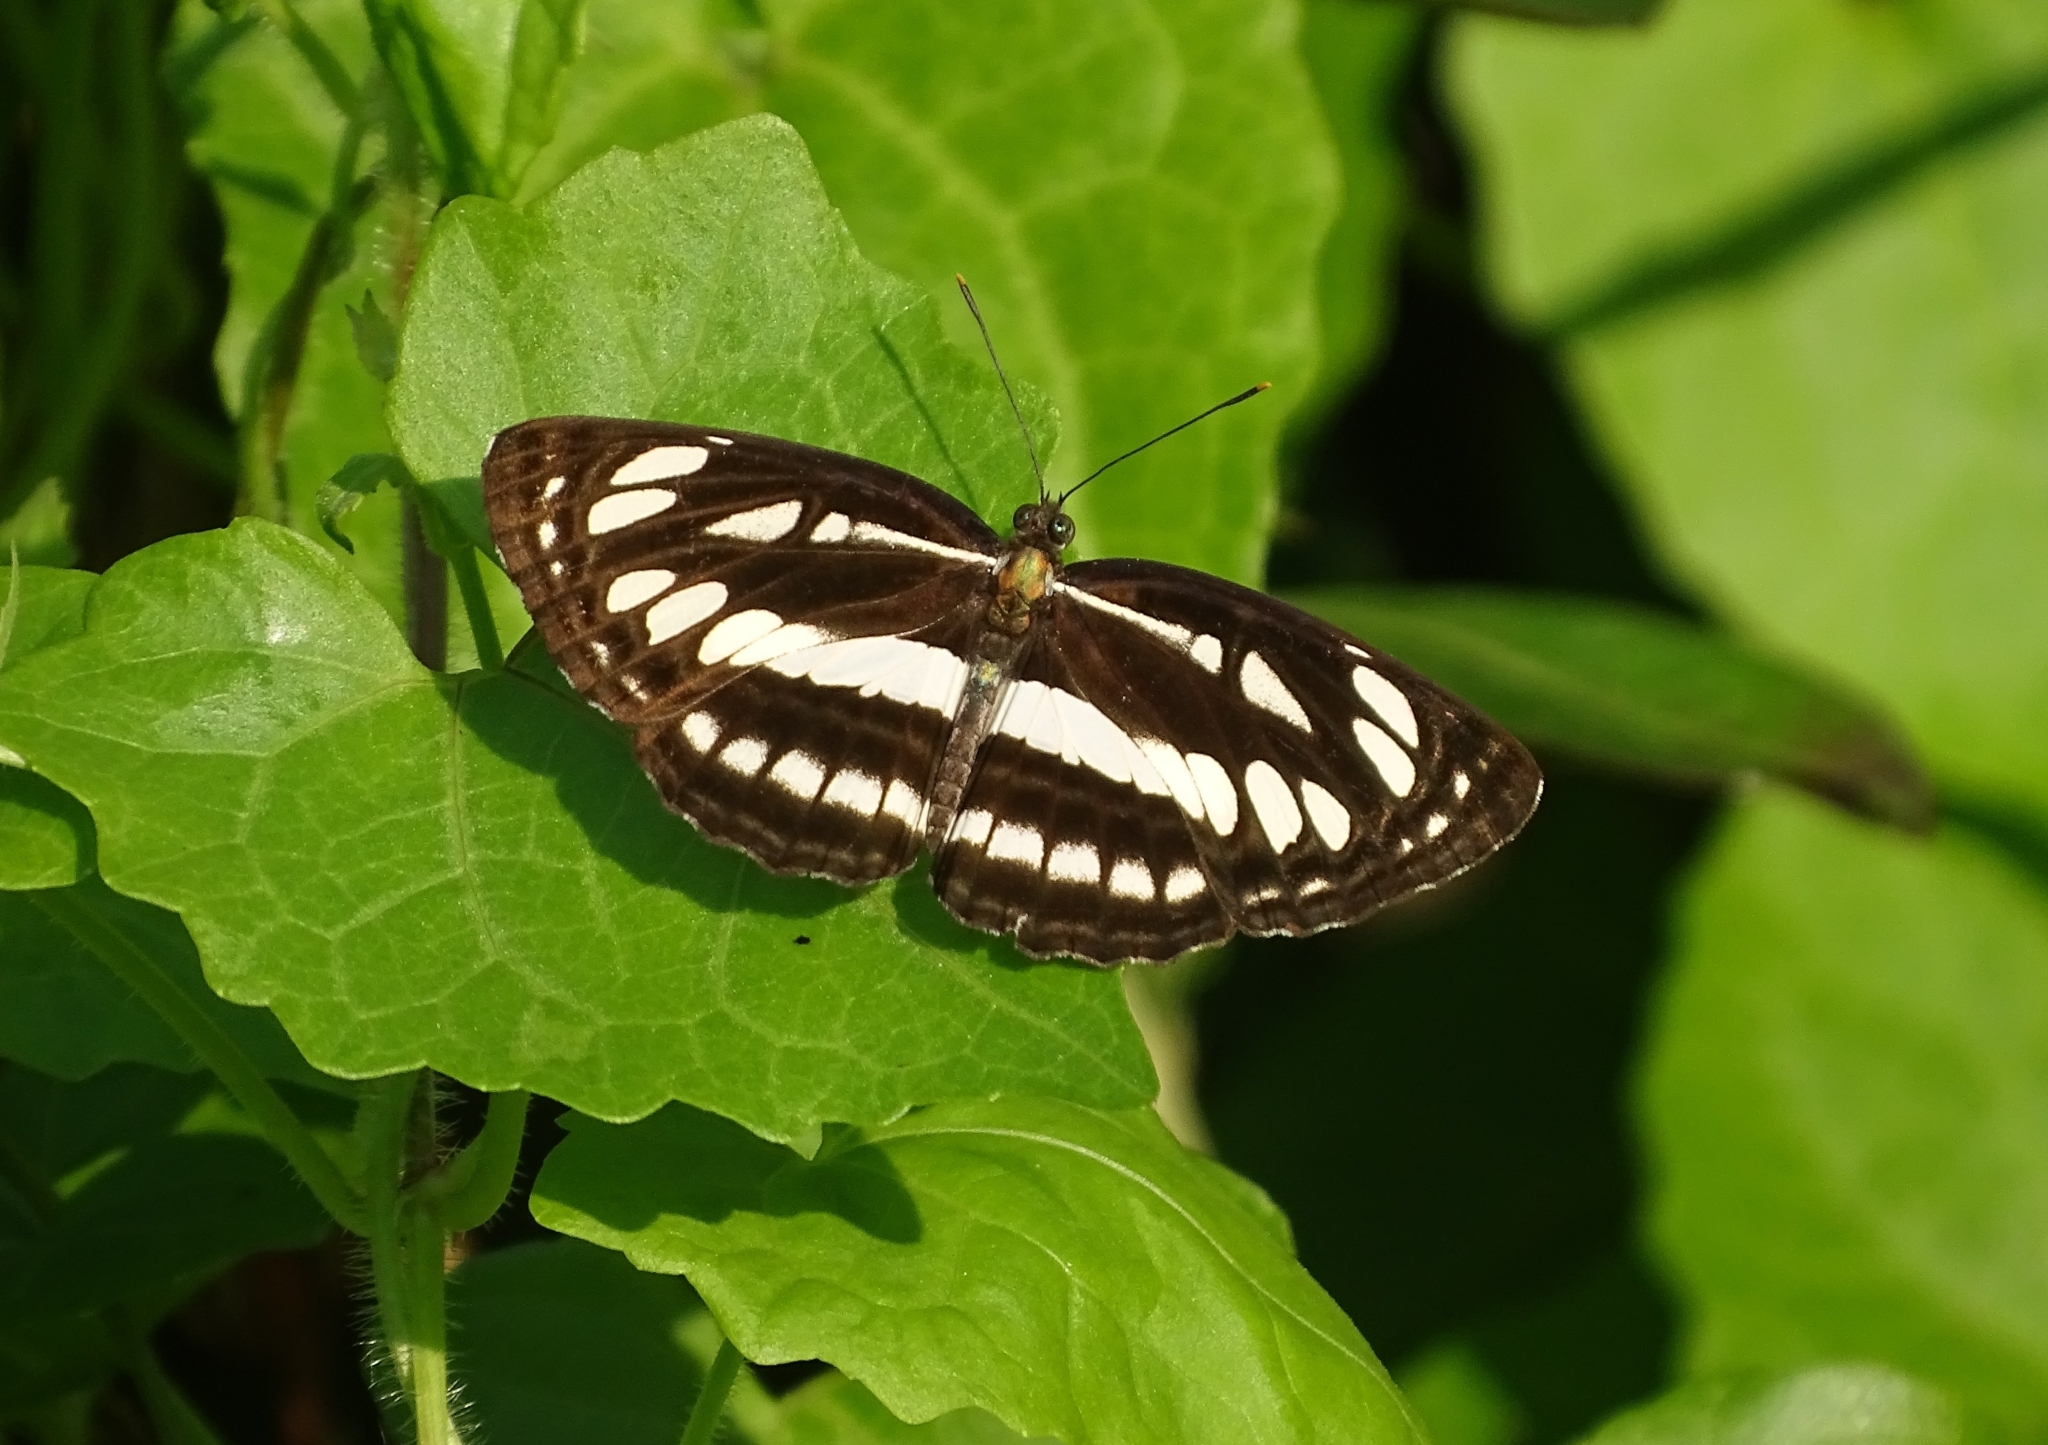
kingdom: Animalia
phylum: Arthropoda
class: Insecta
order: Lepidoptera
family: Nymphalidae
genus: Neptis
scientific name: Neptis hylas
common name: Common sailer
